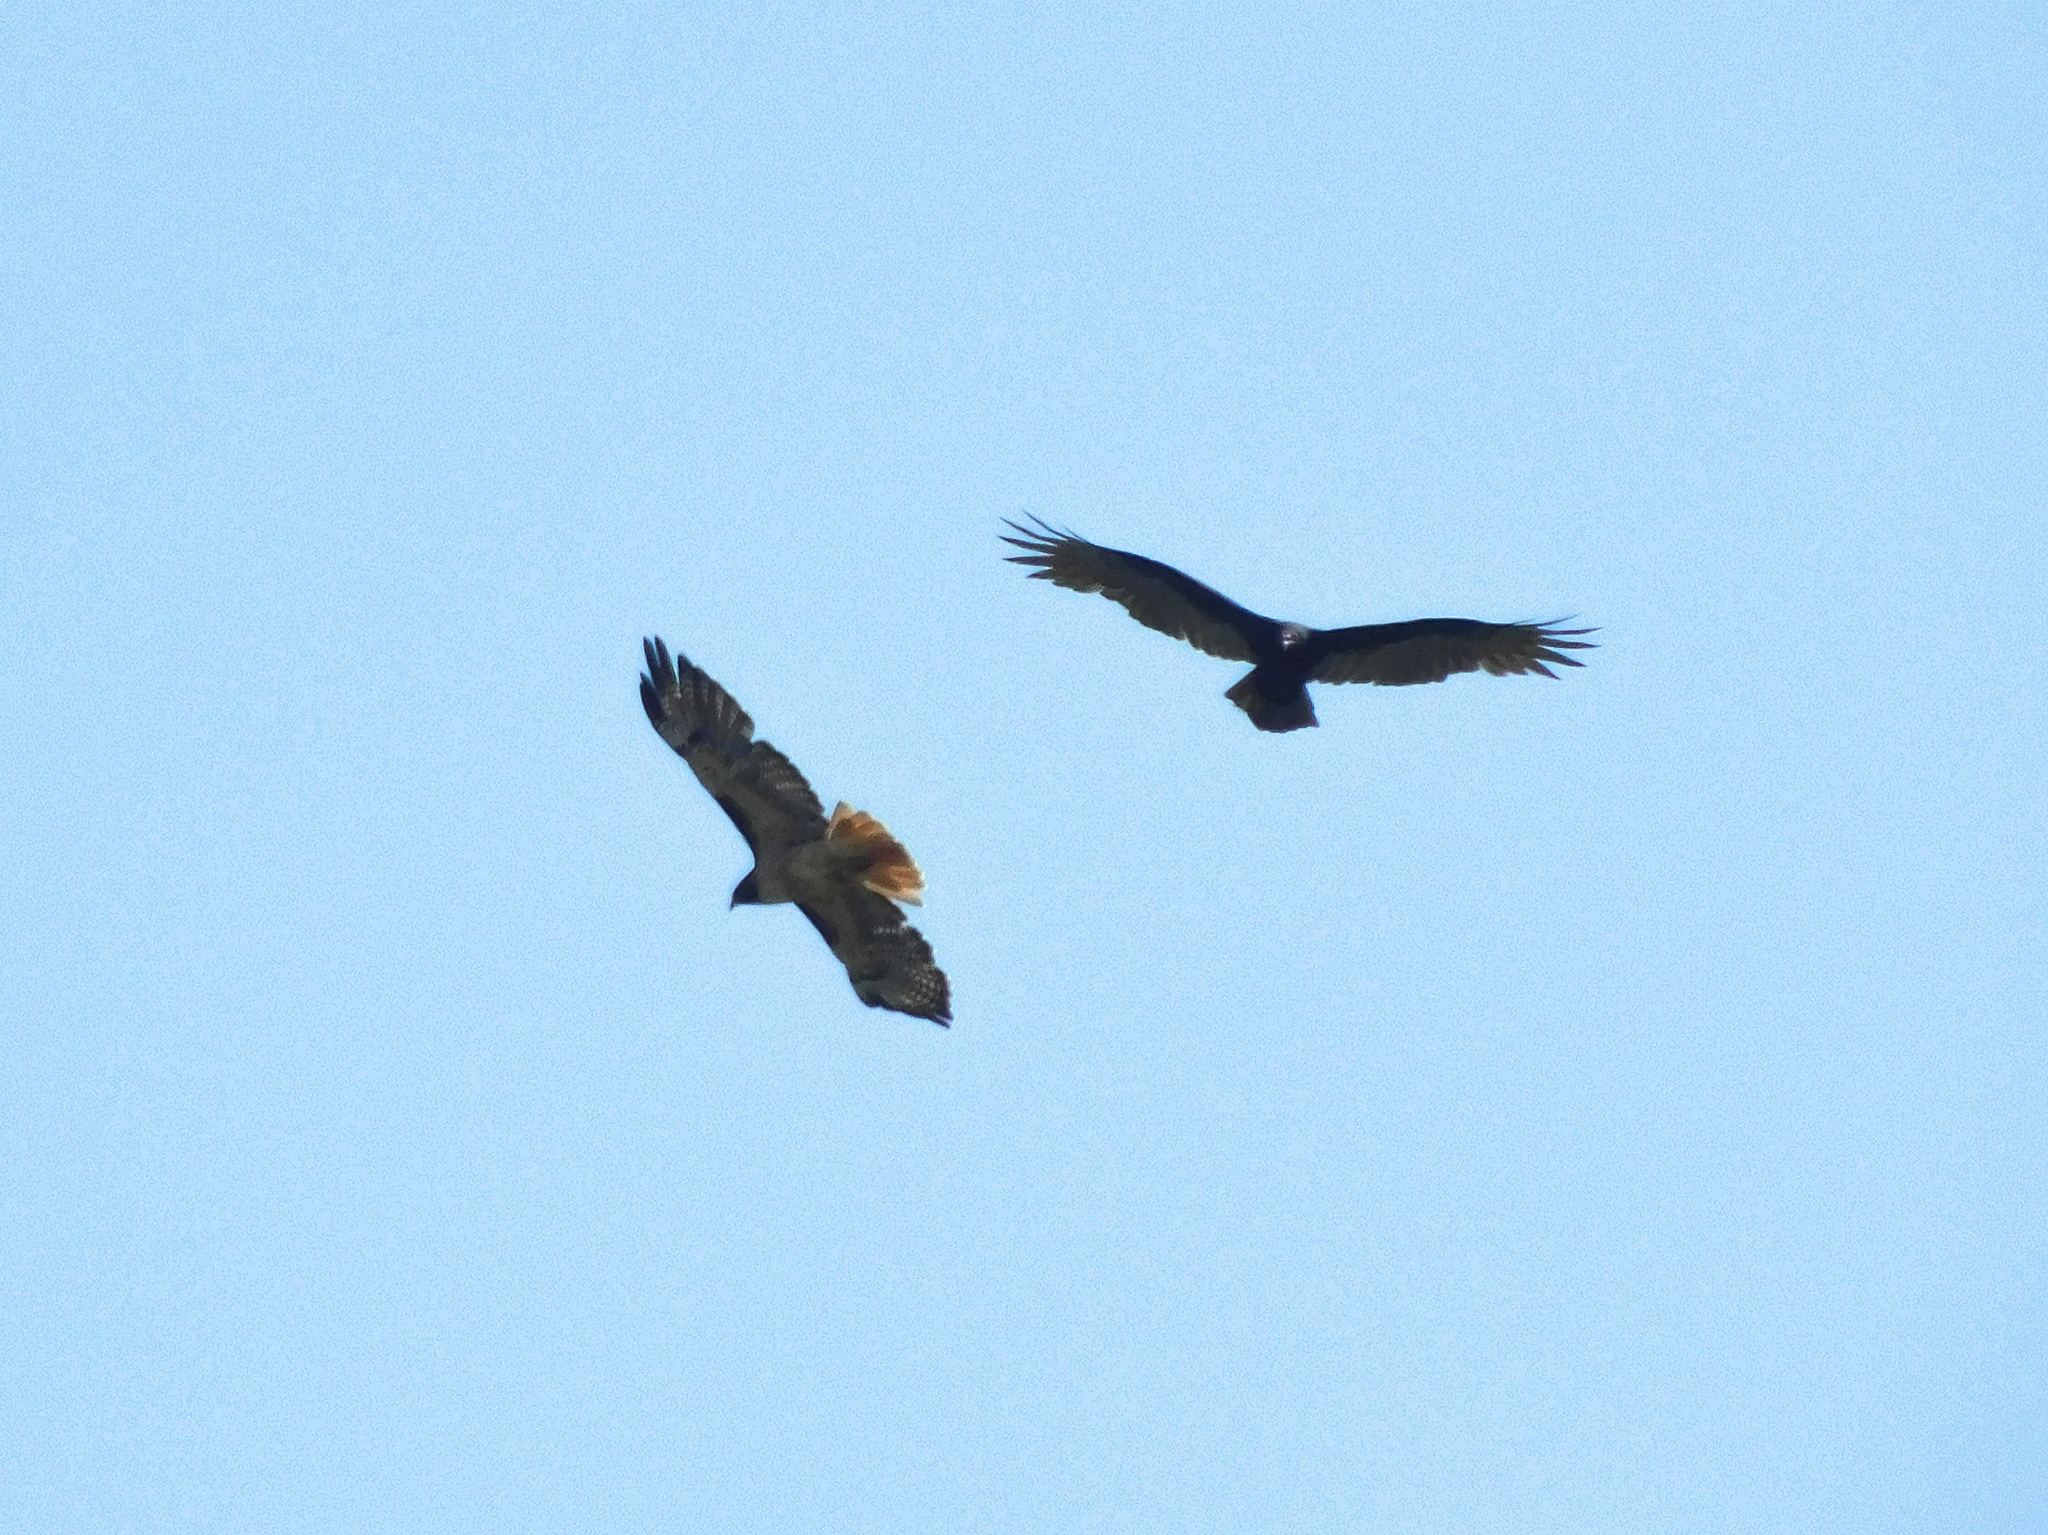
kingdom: Animalia
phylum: Chordata
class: Aves
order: Accipitriformes
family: Accipitridae
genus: Buteo
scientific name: Buteo jamaicensis
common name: Red-tailed hawk
